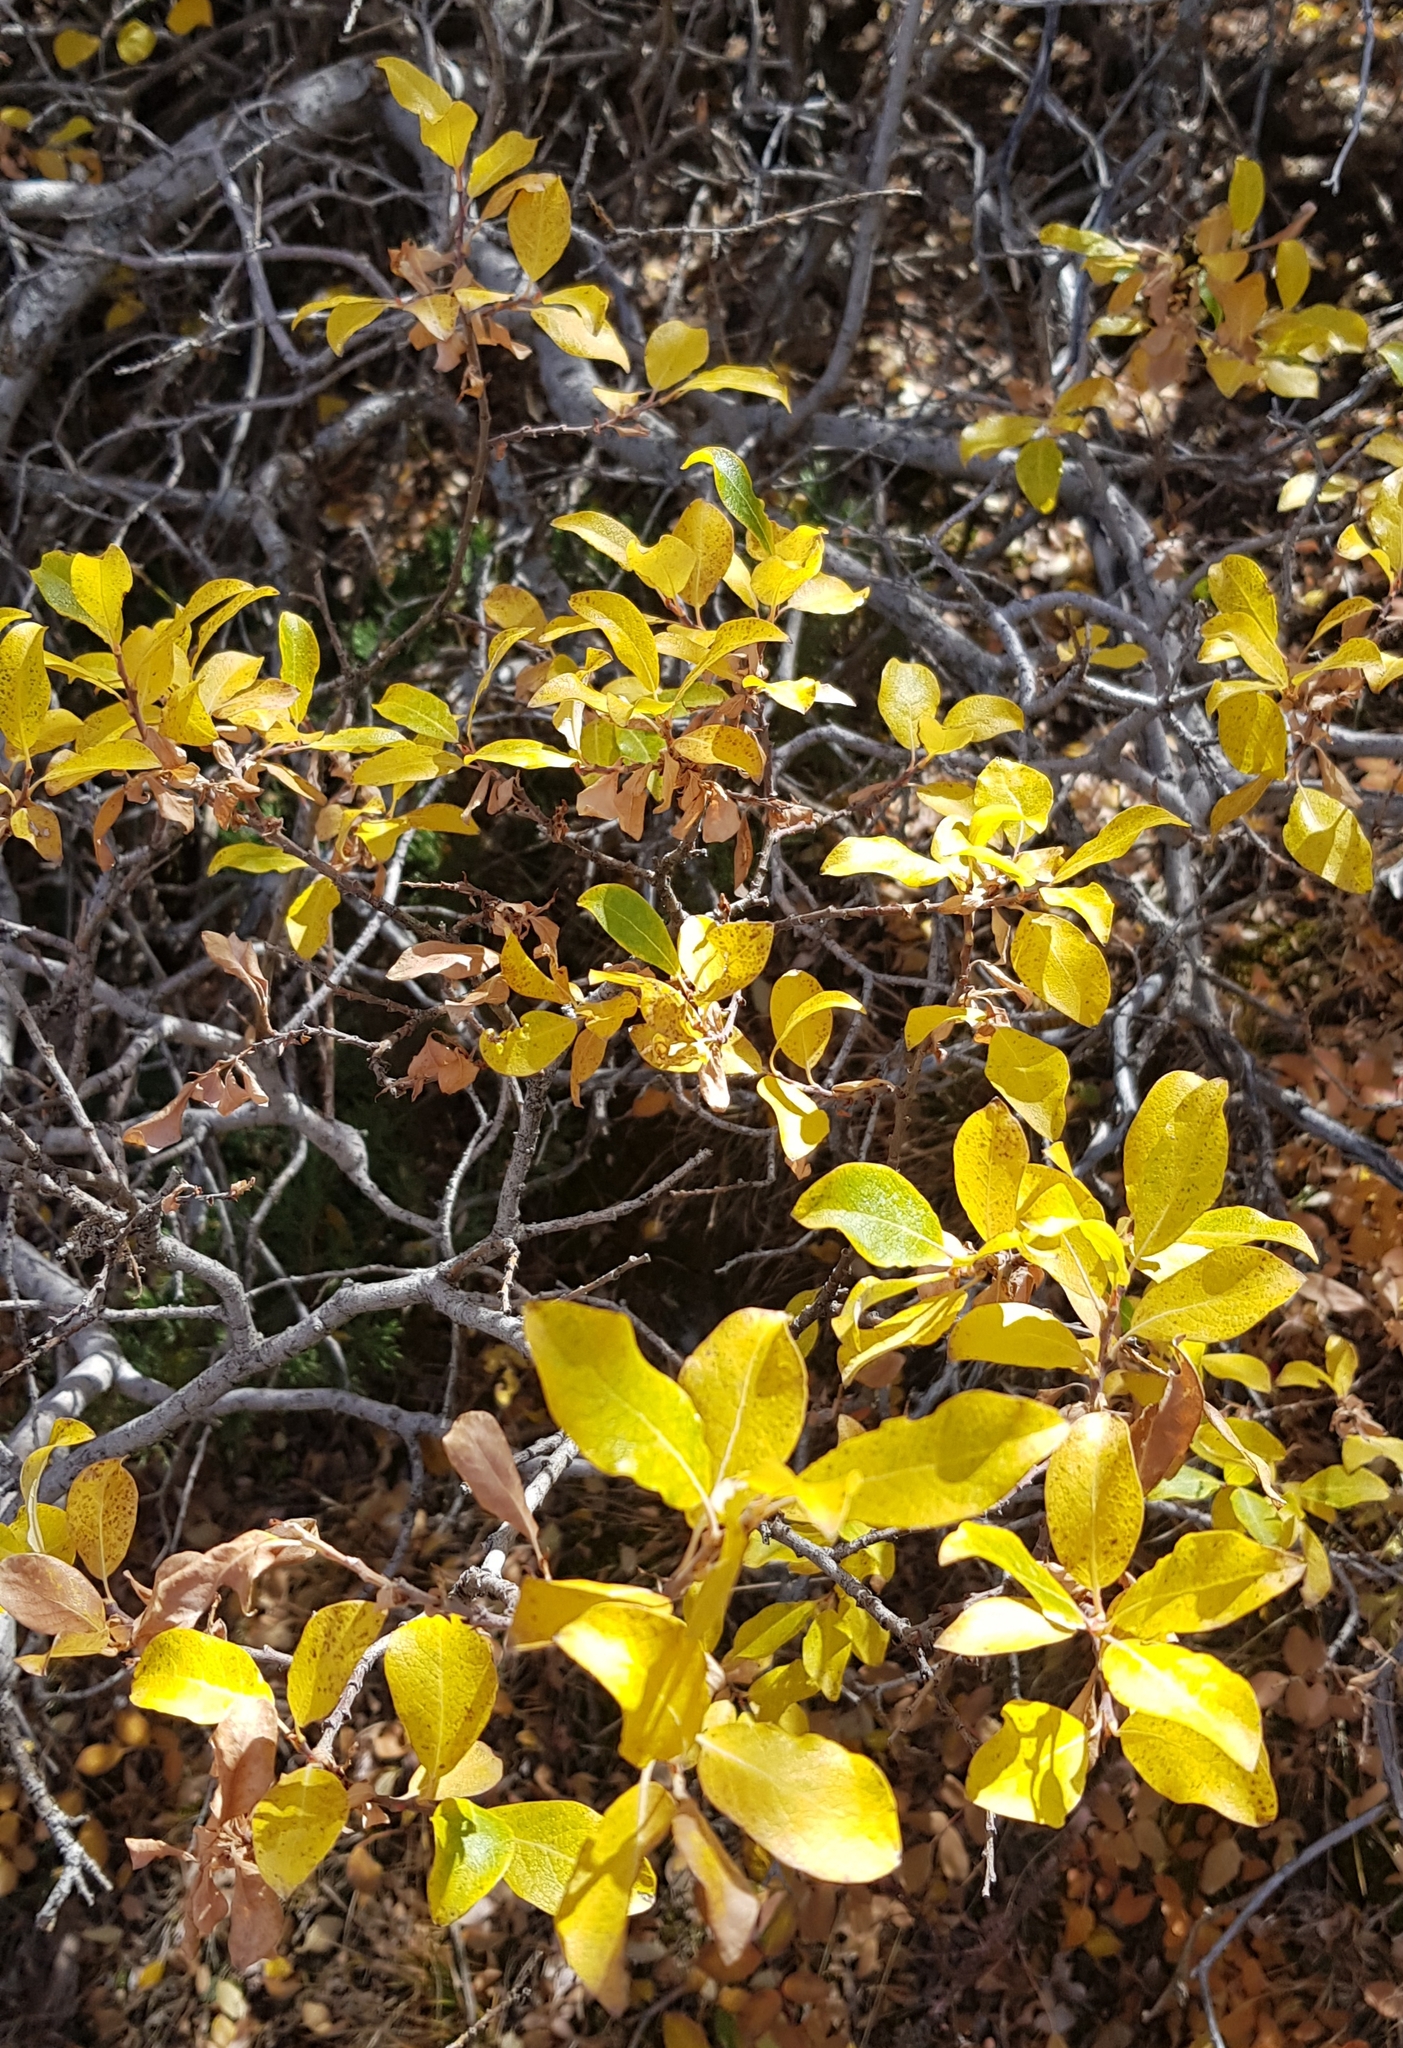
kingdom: Plantae
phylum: Tracheophyta
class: Magnoliopsida
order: Rosales
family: Rosaceae
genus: Spiraea
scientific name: Spiraea media
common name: Russian spiraea
